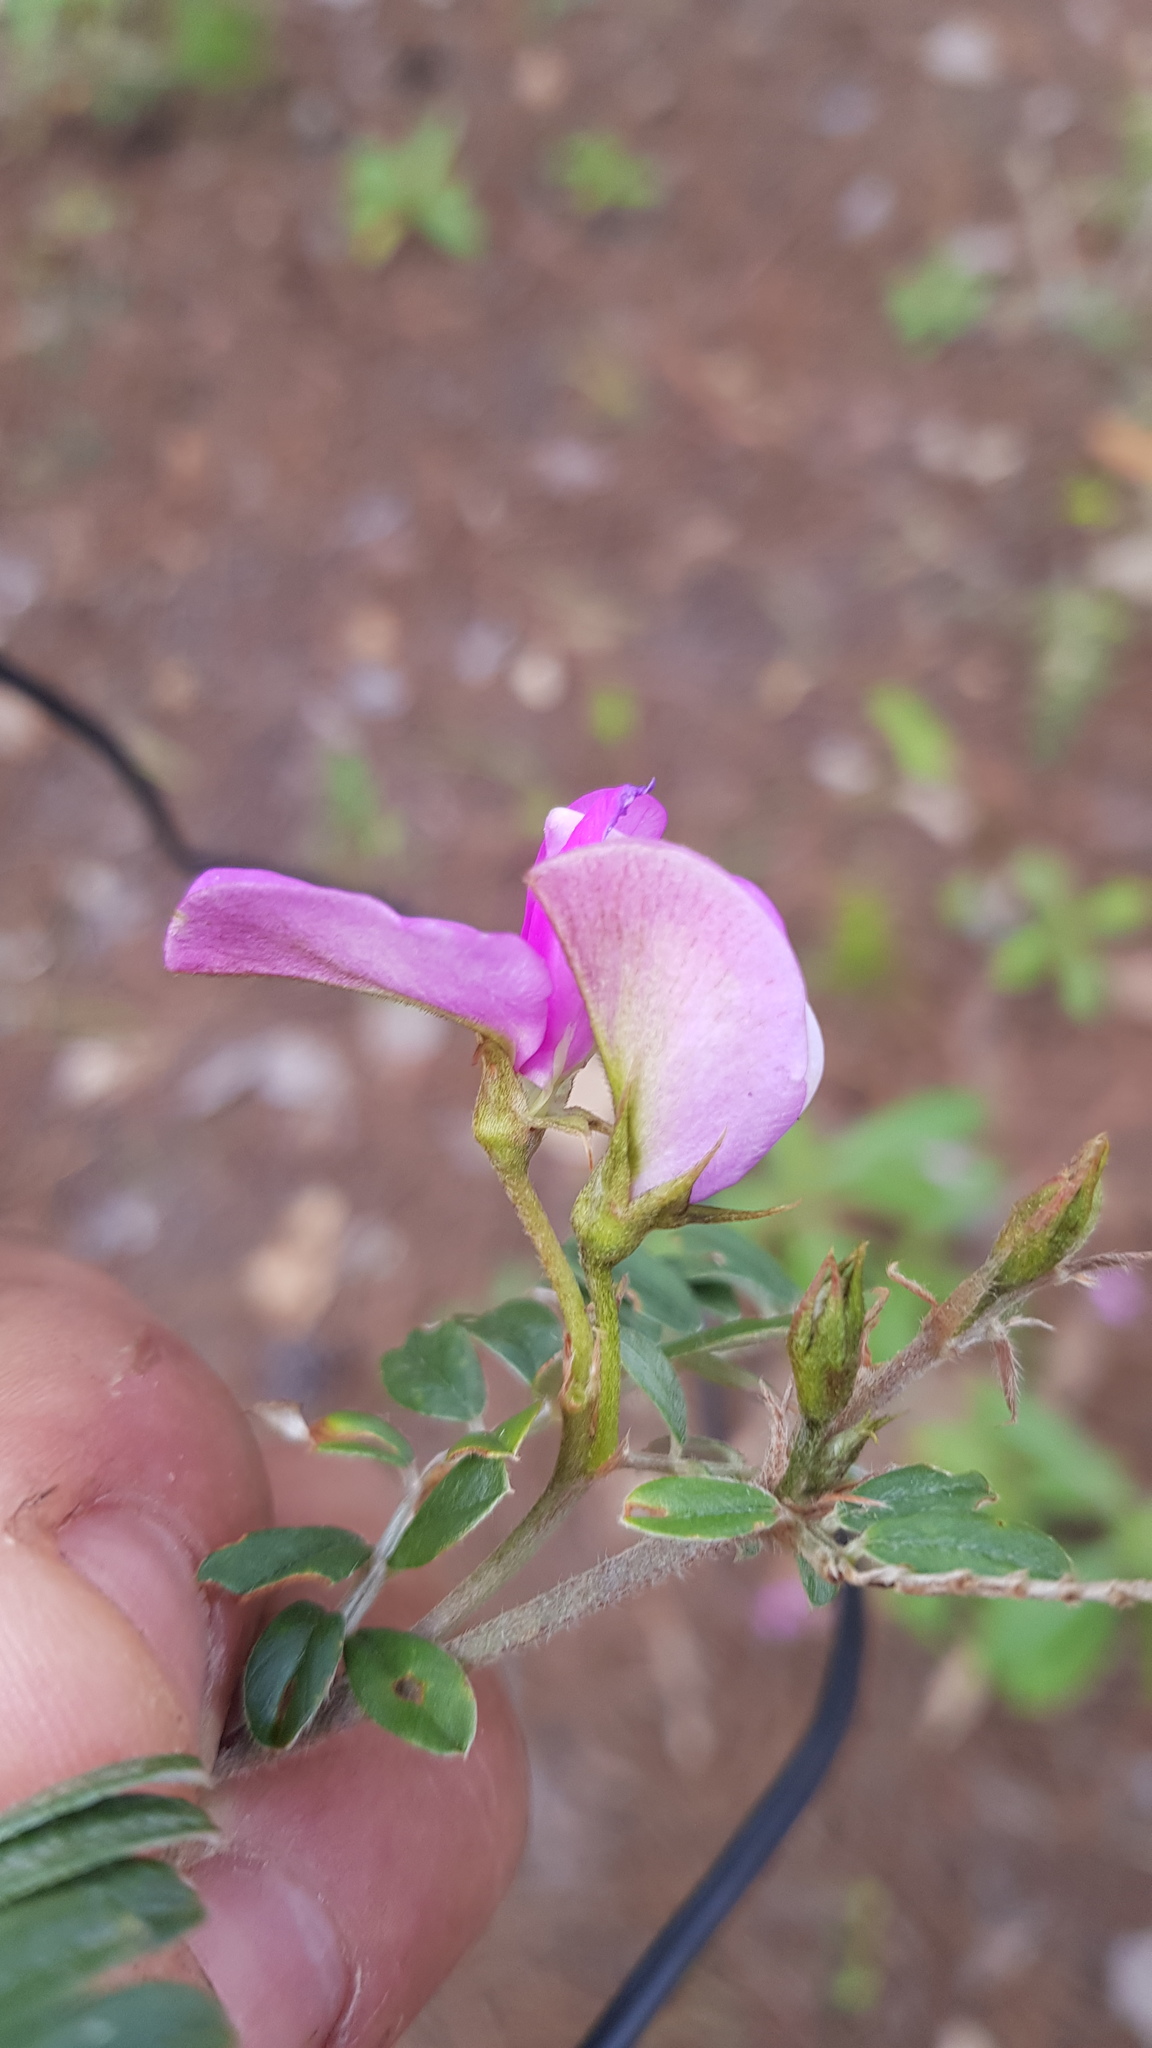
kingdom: Plantae
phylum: Tracheophyta
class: Magnoliopsida
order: Fabales
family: Fabaceae
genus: Tephrosia
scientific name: Tephrosia multifolia
